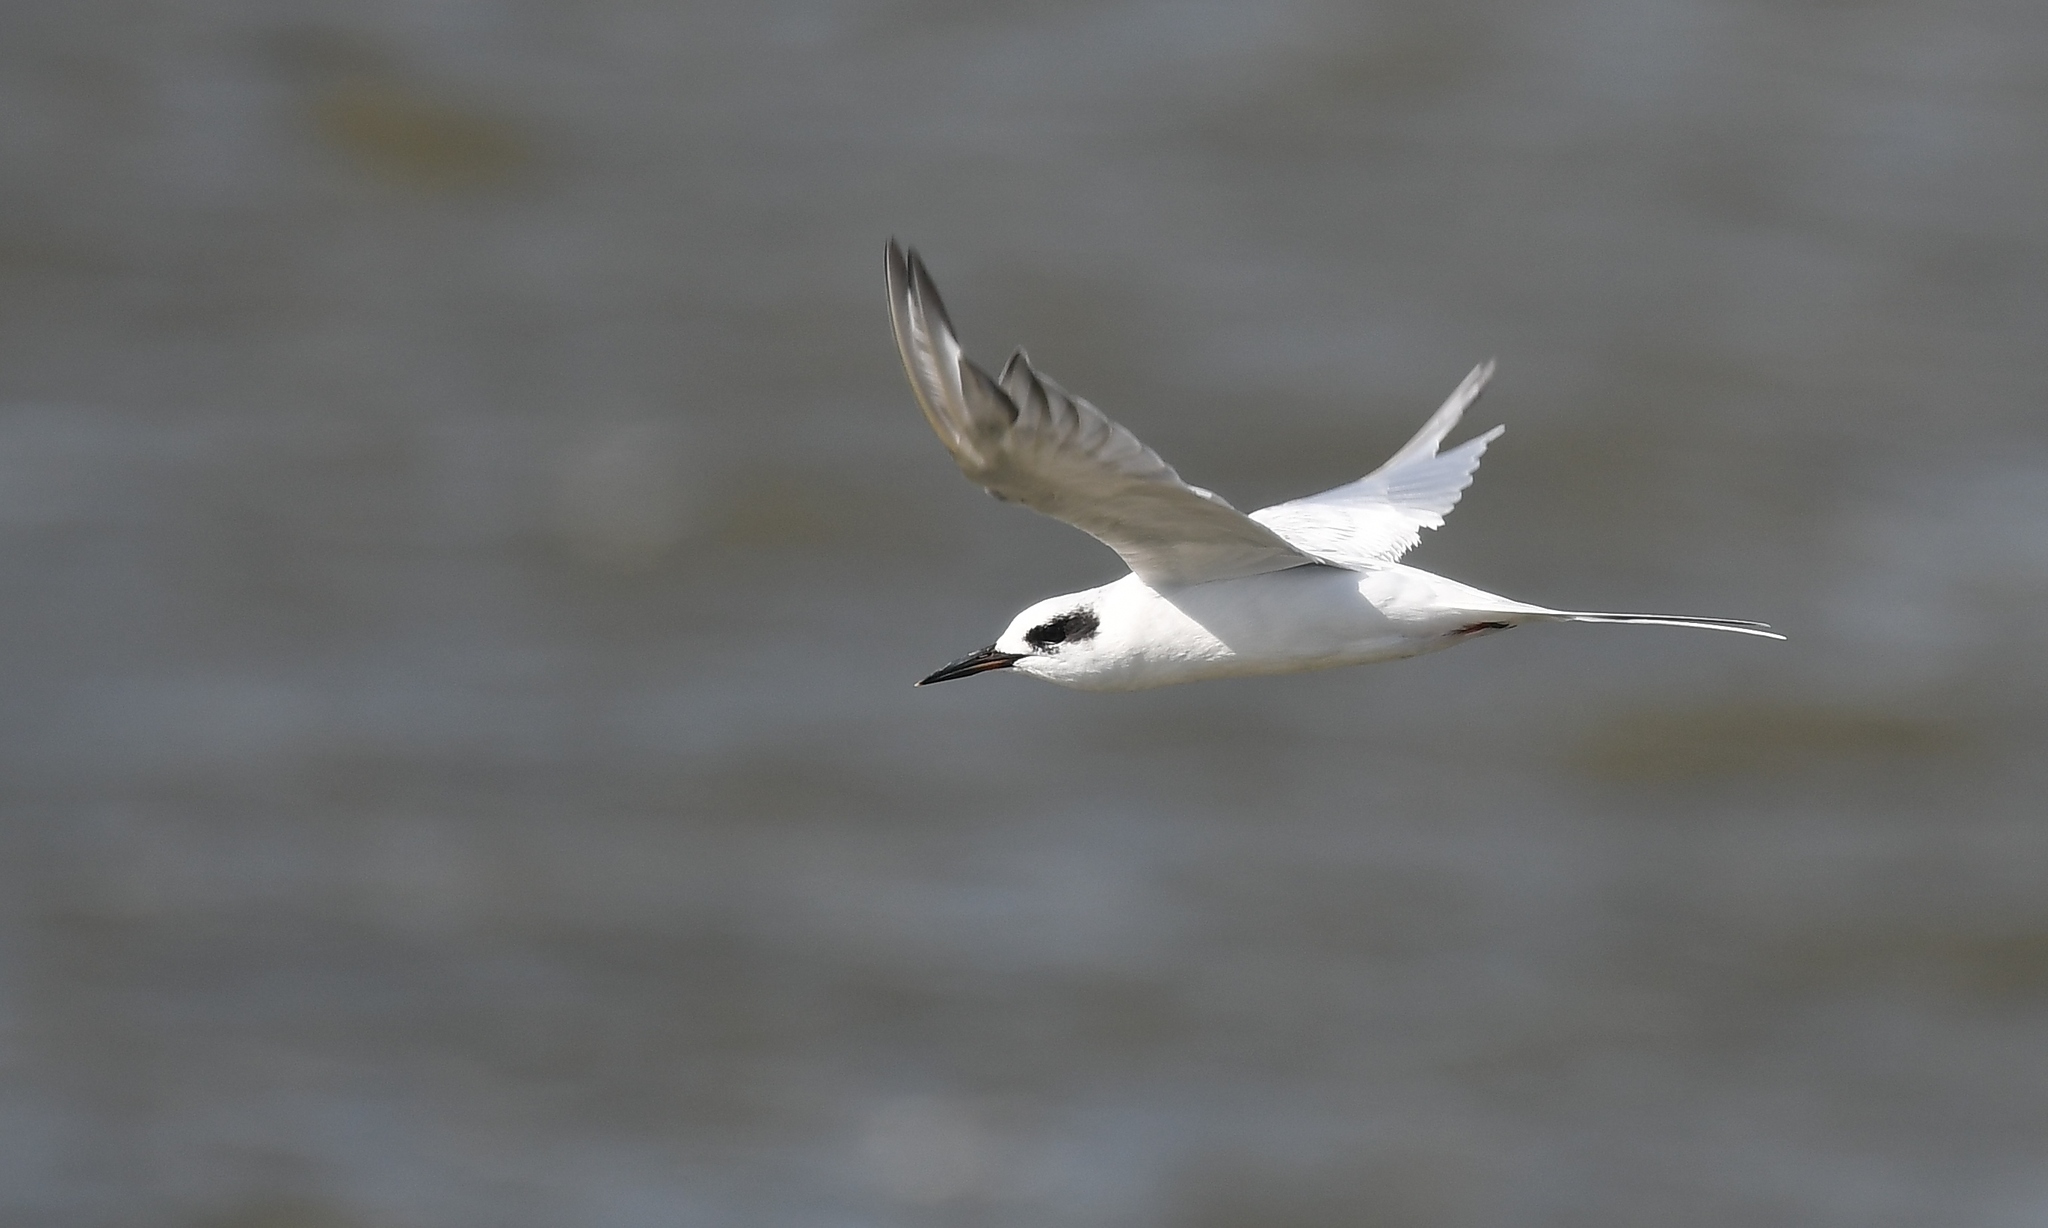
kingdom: Animalia
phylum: Chordata
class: Aves
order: Charadriiformes
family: Laridae
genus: Sterna
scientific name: Sterna forsteri
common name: Forster's tern
